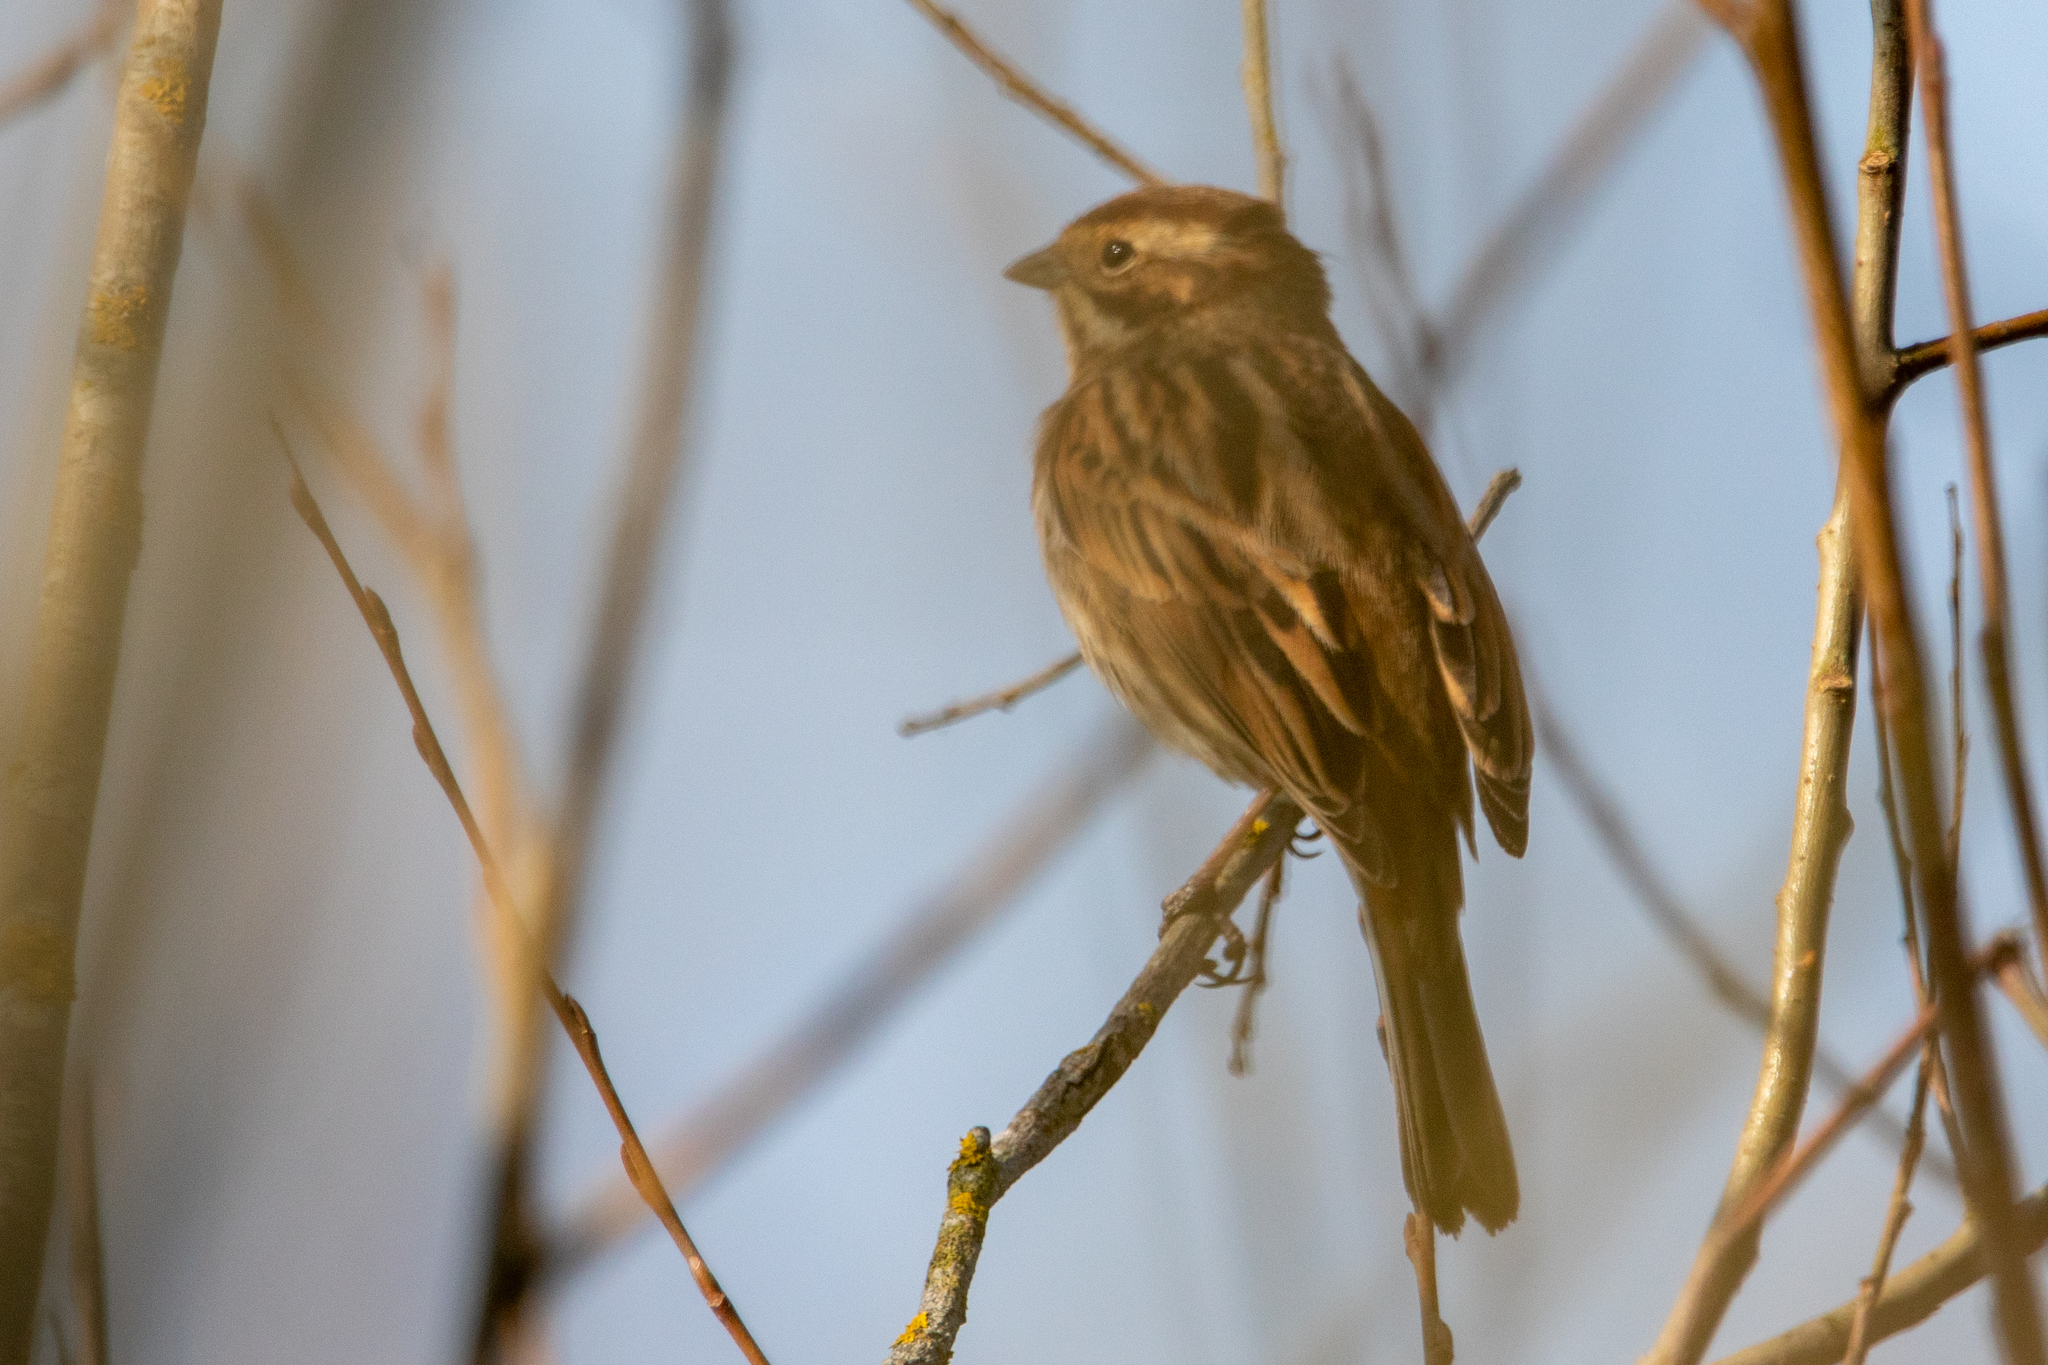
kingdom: Animalia
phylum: Chordata
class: Aves
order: Passeriformes
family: Emberizidae
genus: Emberiza
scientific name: Emberiza schoeniclus
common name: Reed bunting
